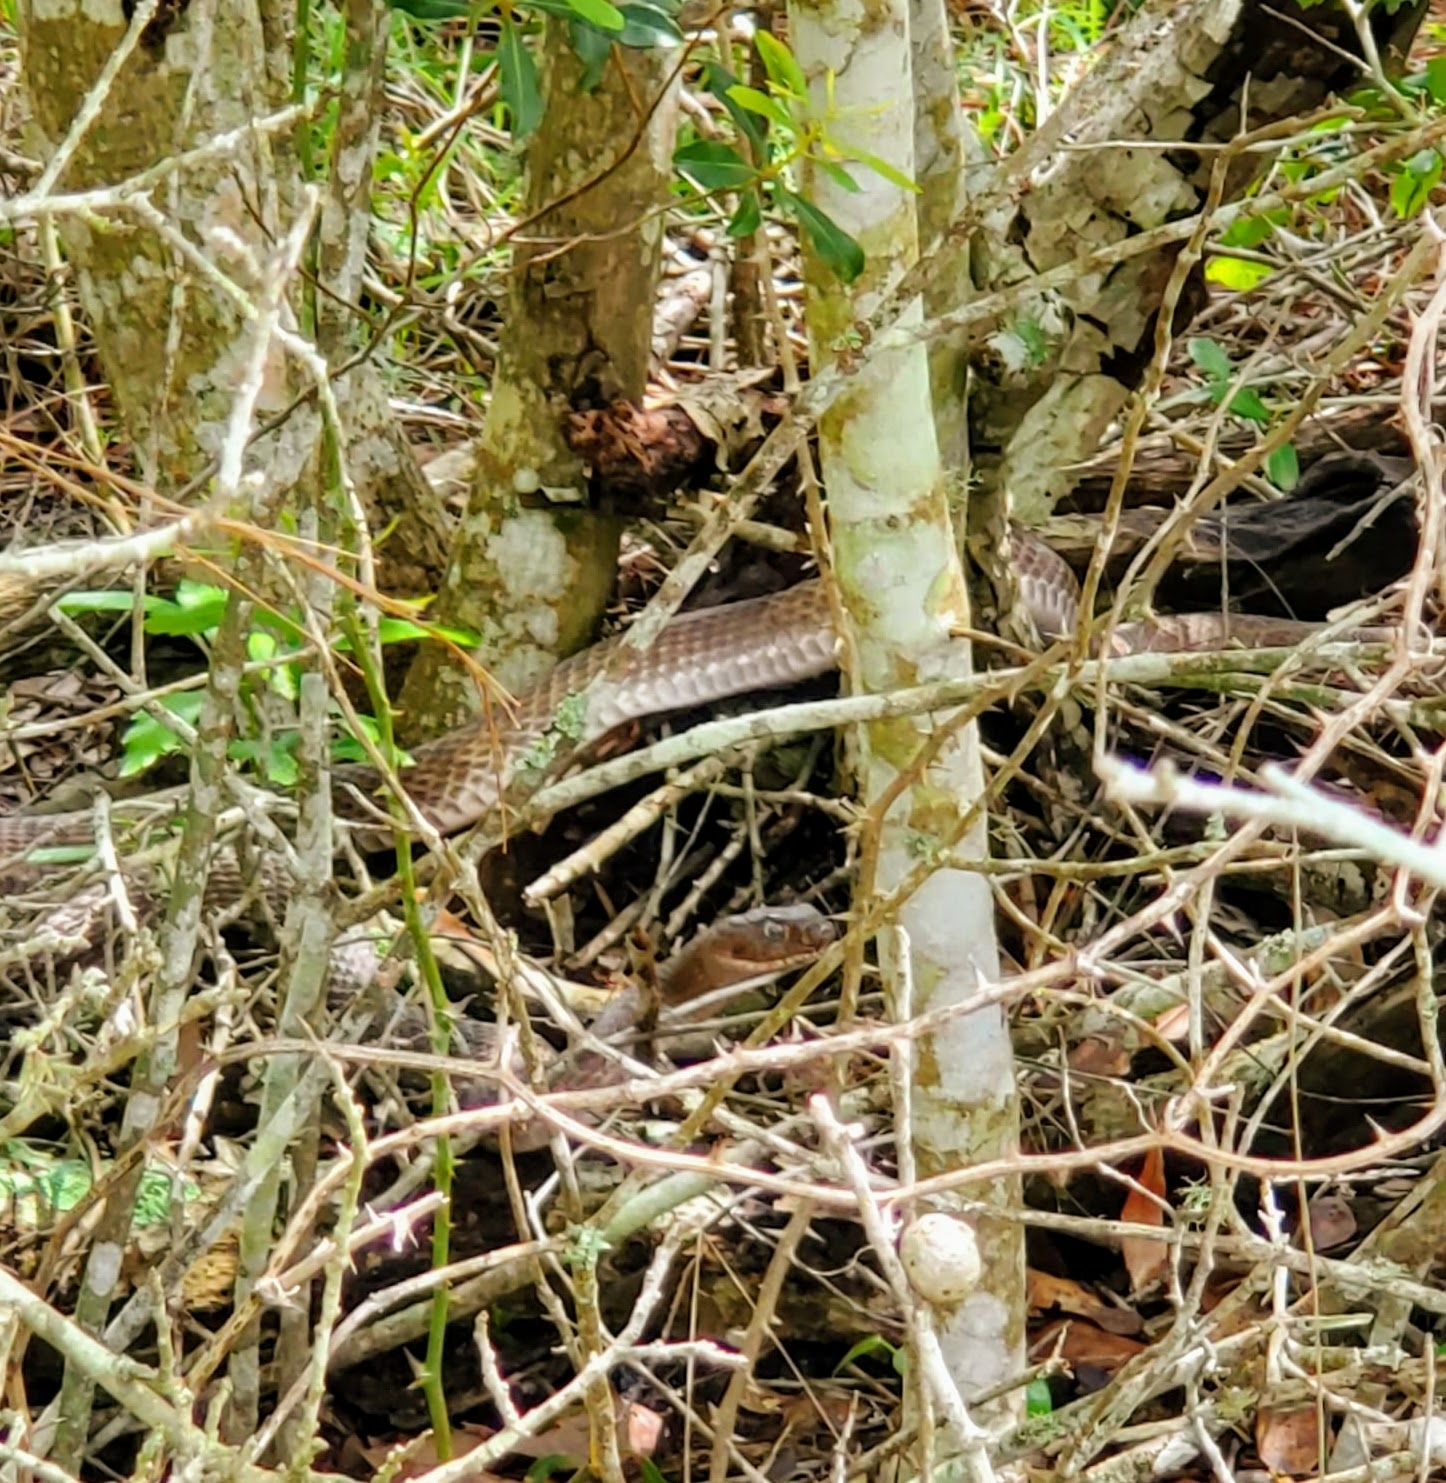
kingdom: Animalia
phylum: Chordata
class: Squamata
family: Colubridae
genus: Masticophis
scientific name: Masticophis flagellum
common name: Coachwhip
